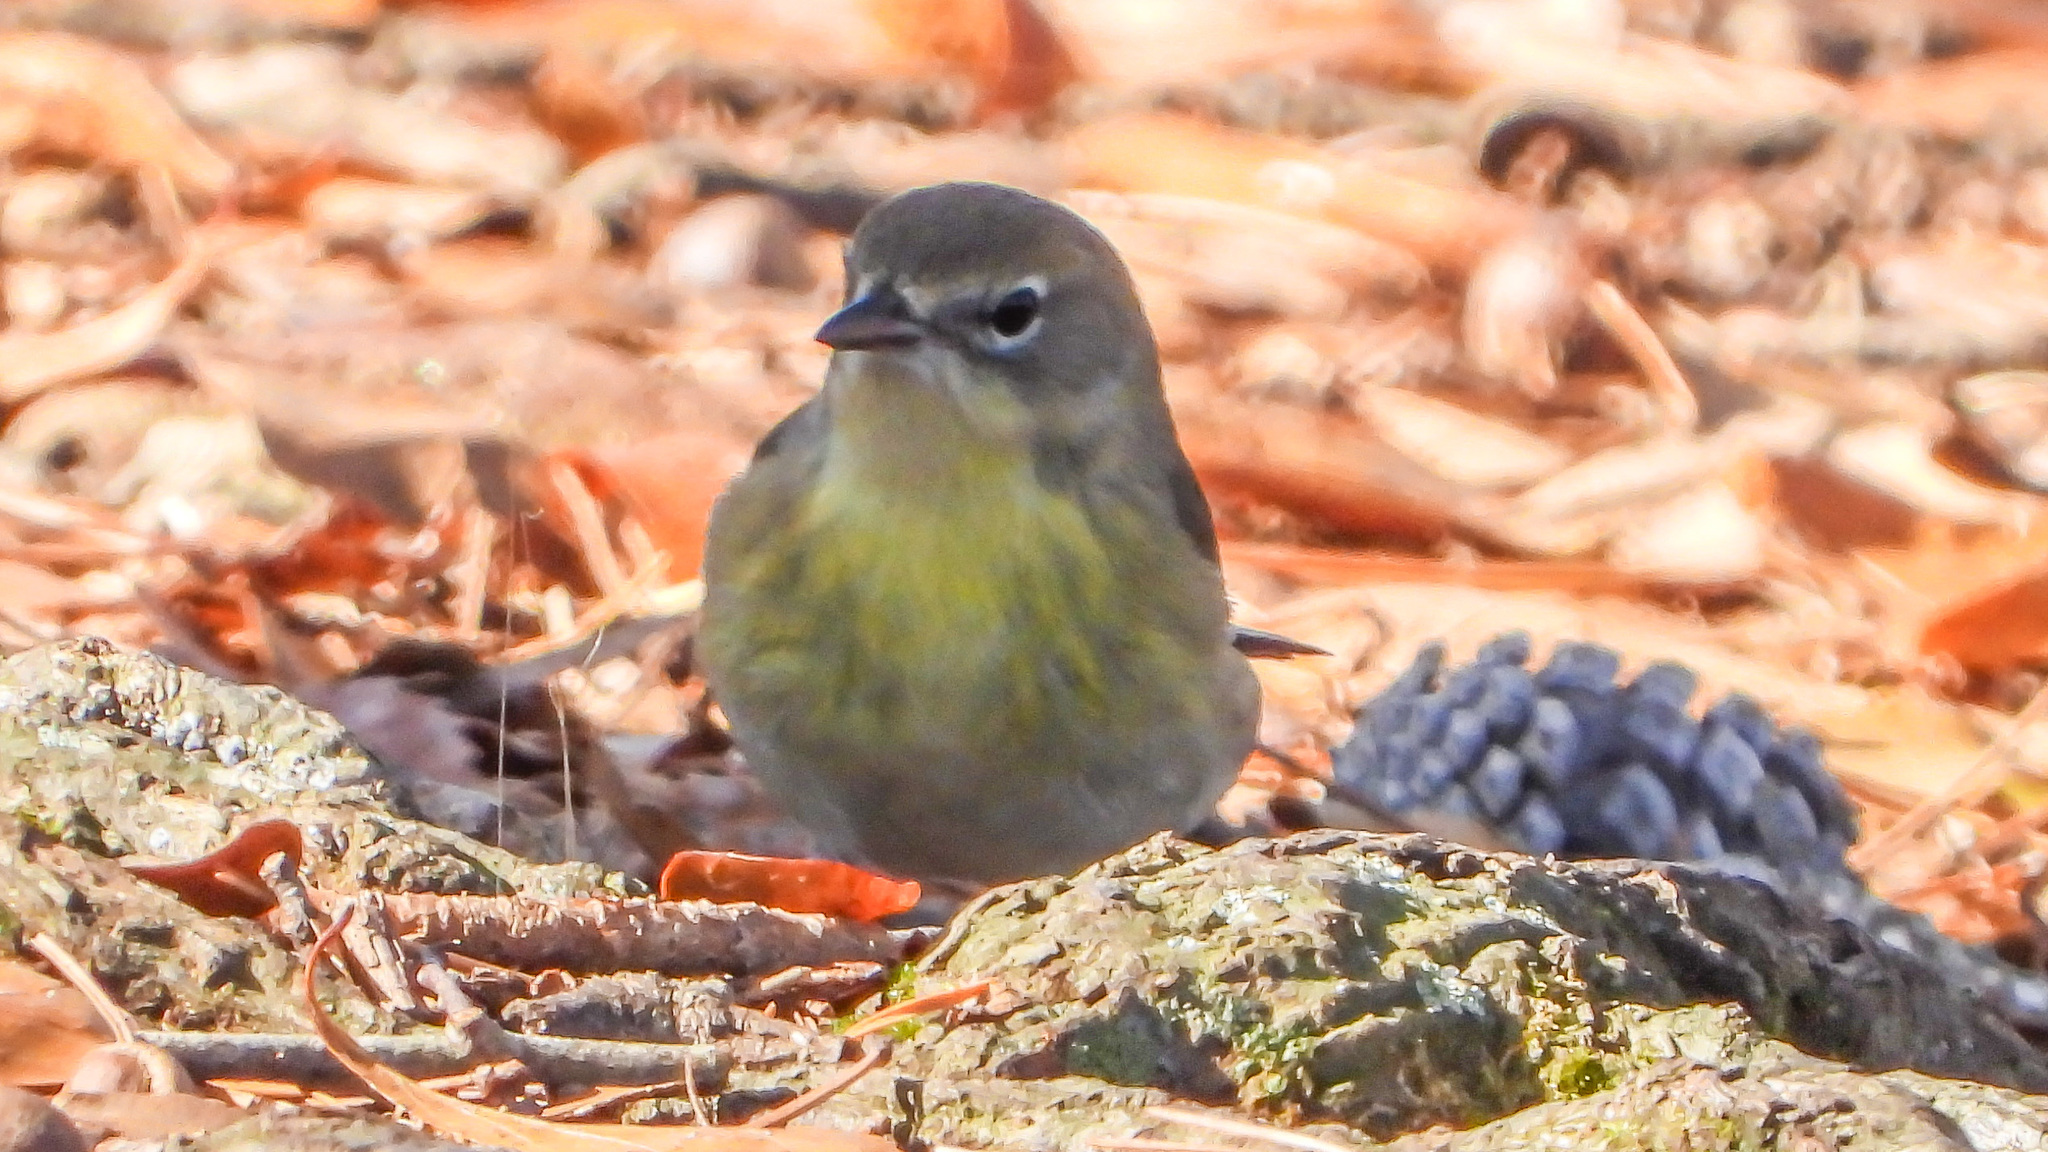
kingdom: Animalia
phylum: Chordata
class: Aves
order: Passeriformes
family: Parulidae
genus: Setophaga
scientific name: Setophaga pinus
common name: Pine warbler
